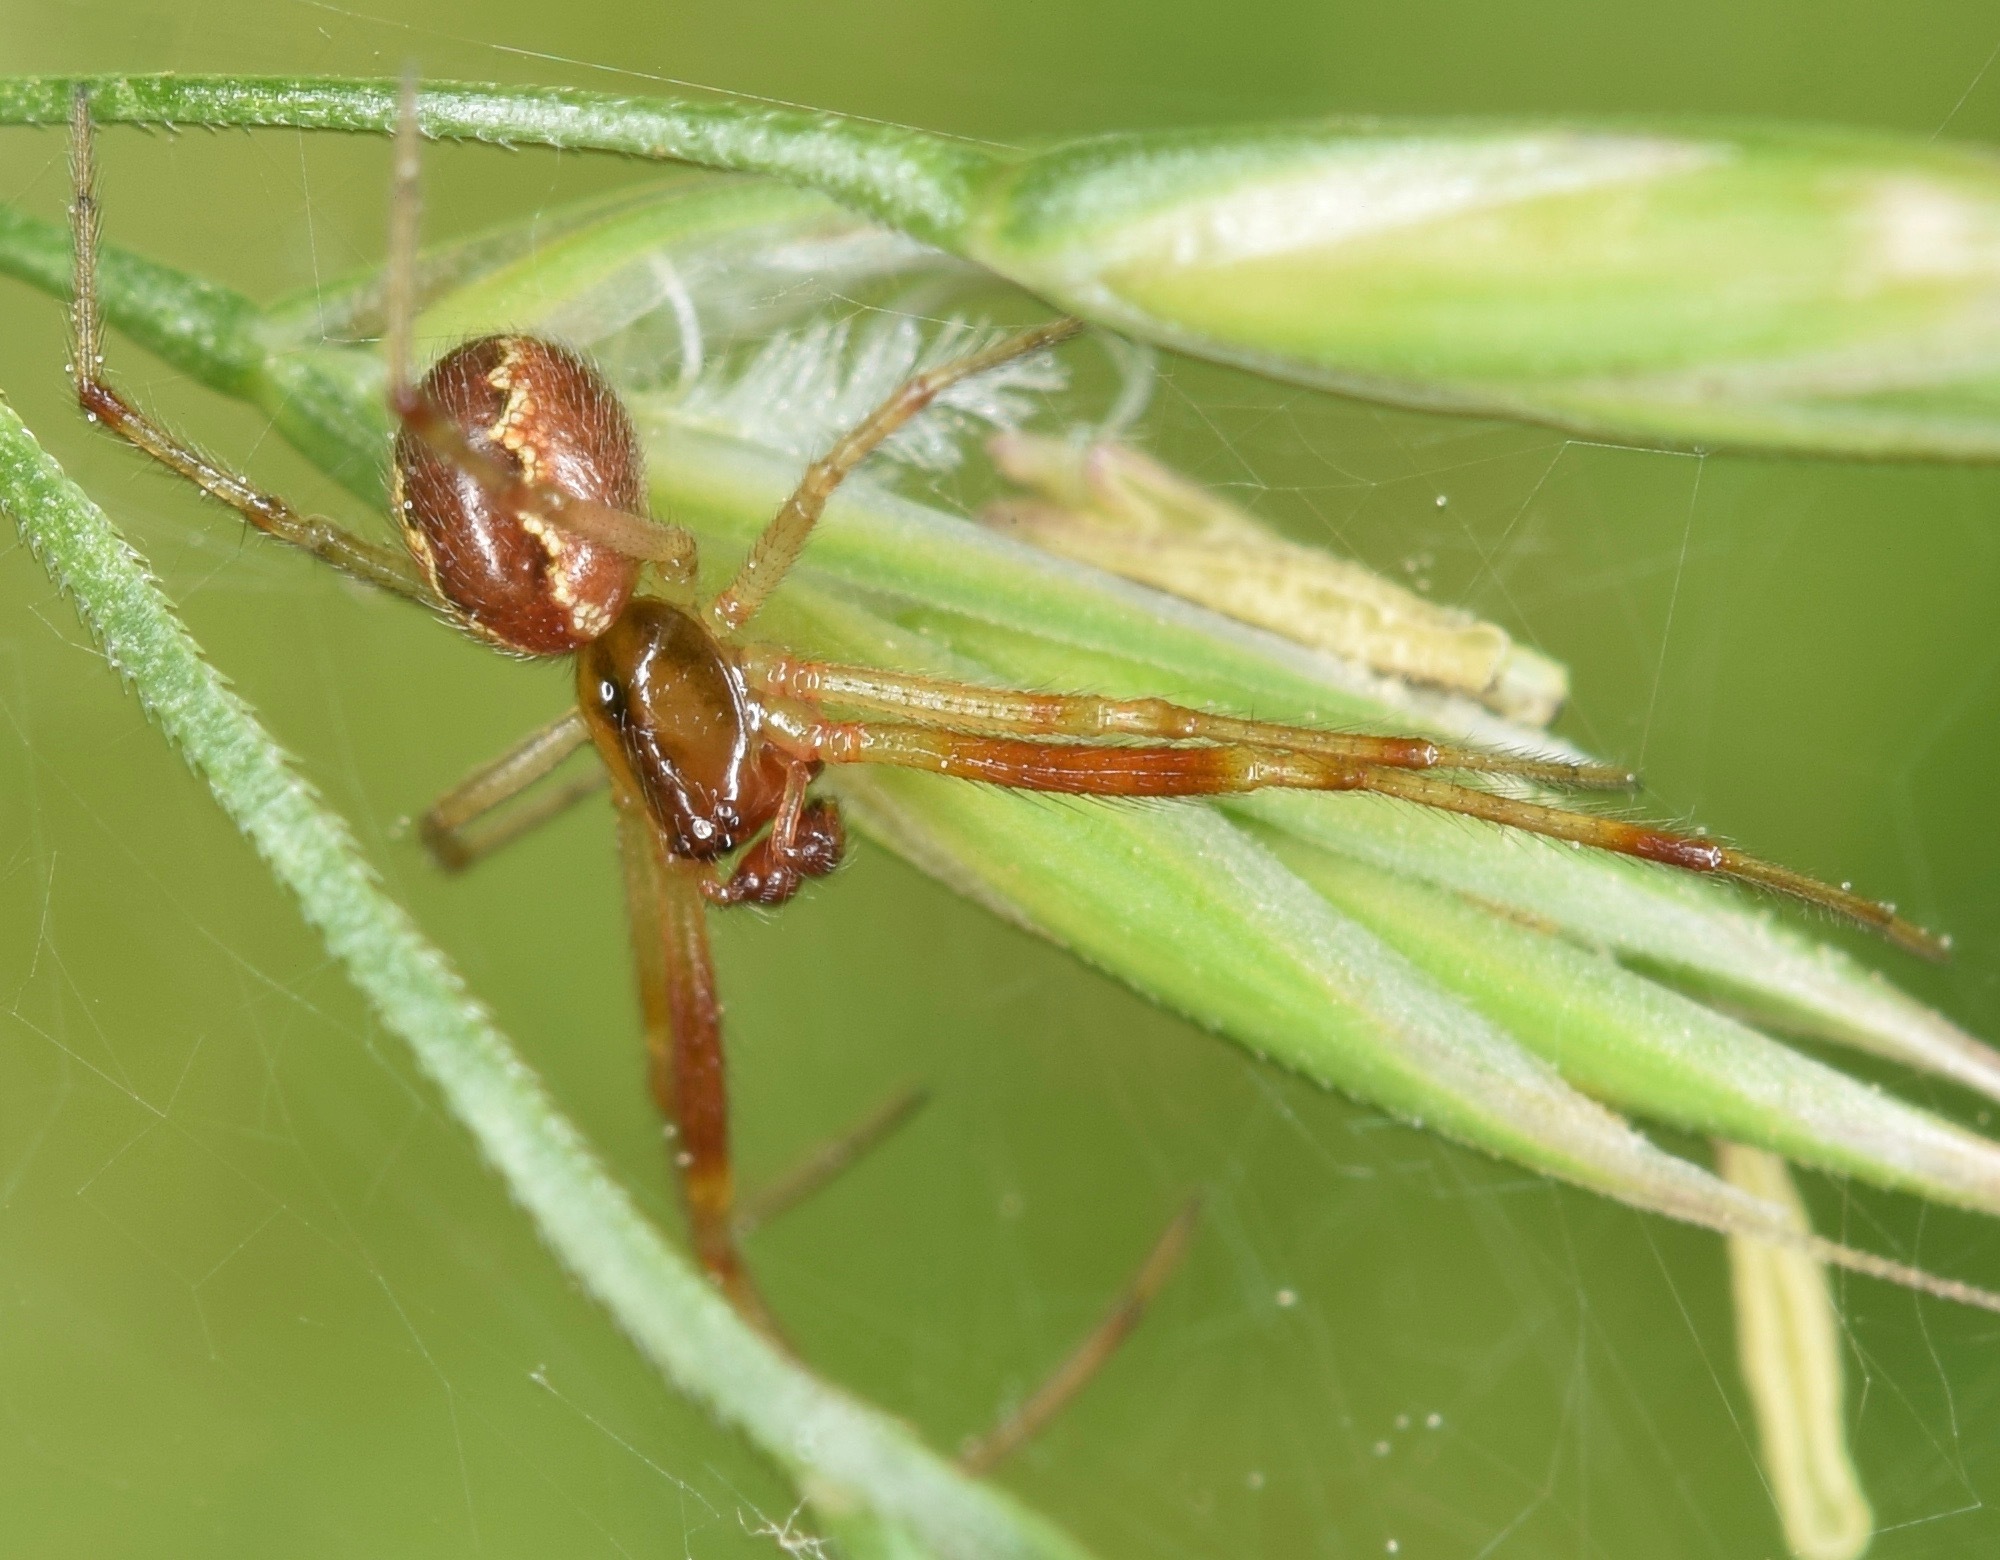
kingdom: Animalia
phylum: Arthropoda
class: Arachnida
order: Araneae
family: Theridiidae
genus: Anelosimus
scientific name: Anelosimus studiosus
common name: Cobweb spiders
